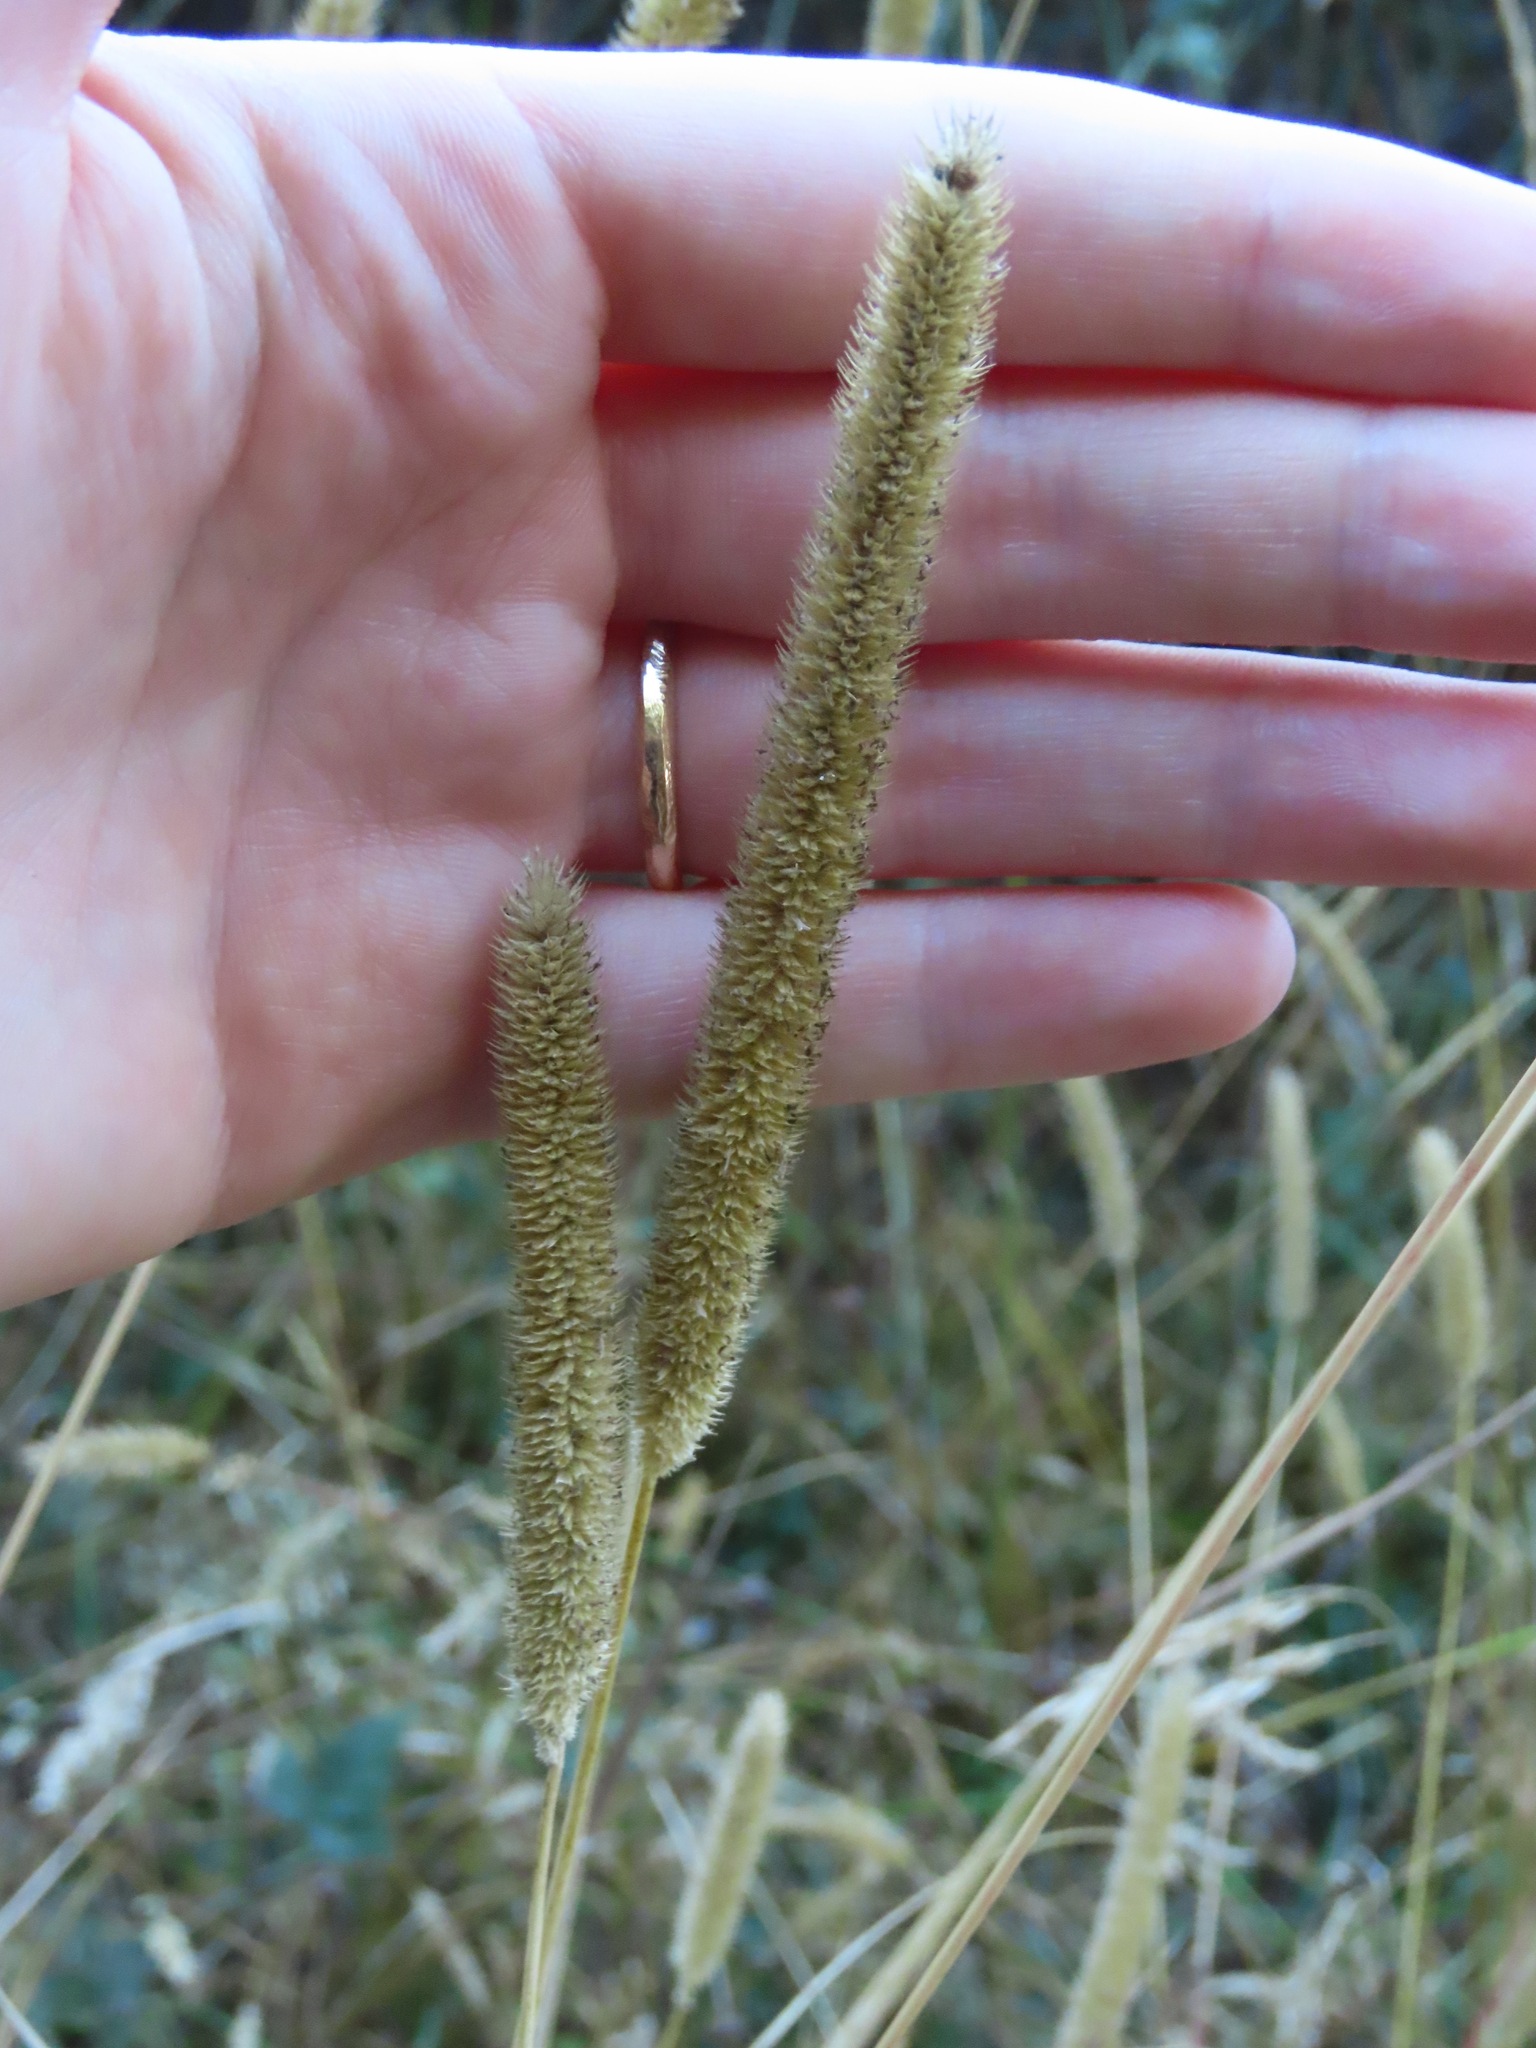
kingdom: Plantae
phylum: Tracheophyta
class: Liliopsida
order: Poales
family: Poaceae
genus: Phleum
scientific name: Phleum pratense
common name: Timothy grass
